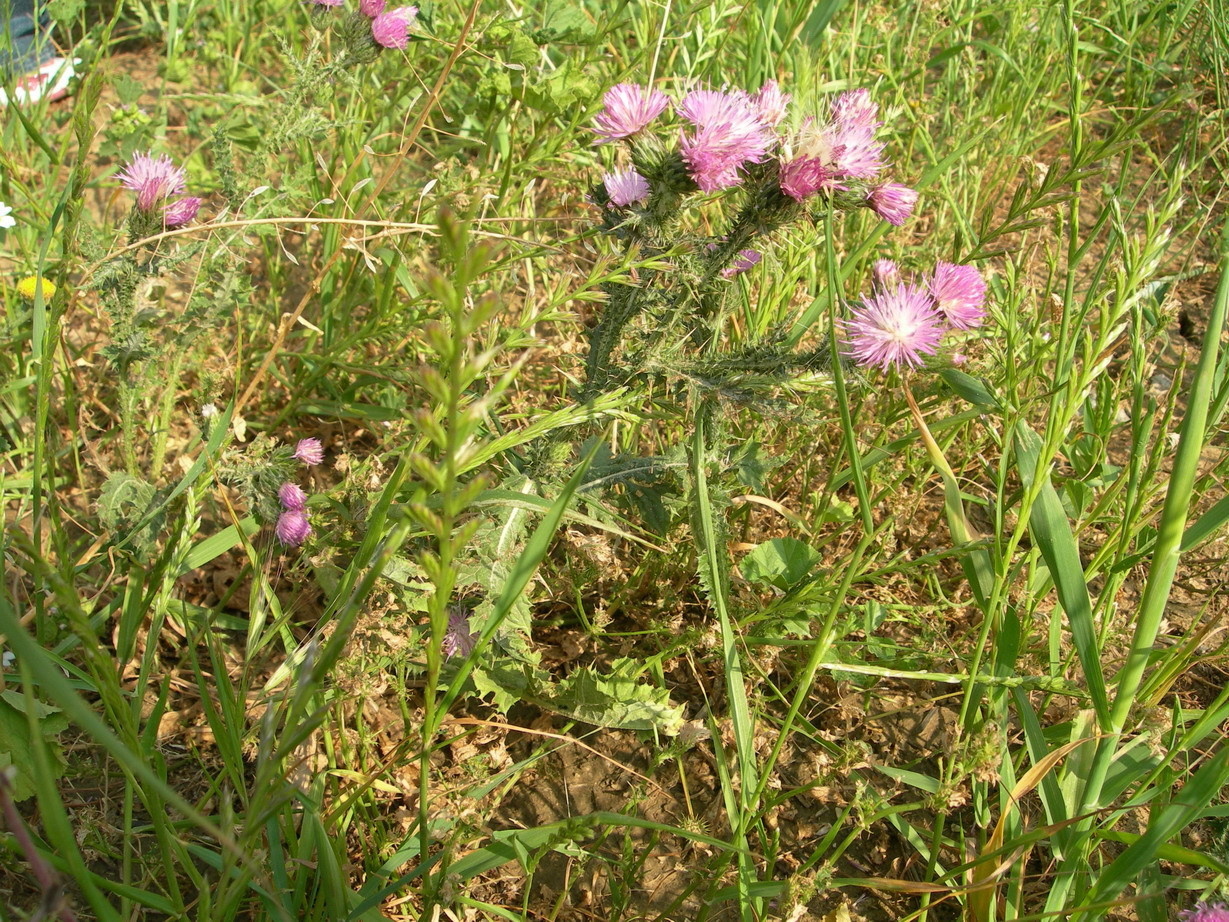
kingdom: Plantae
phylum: Tracheophyta
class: Magnoliopsida
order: Asterales
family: Asteraceae
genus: Carduus
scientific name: Carduus spachianus
